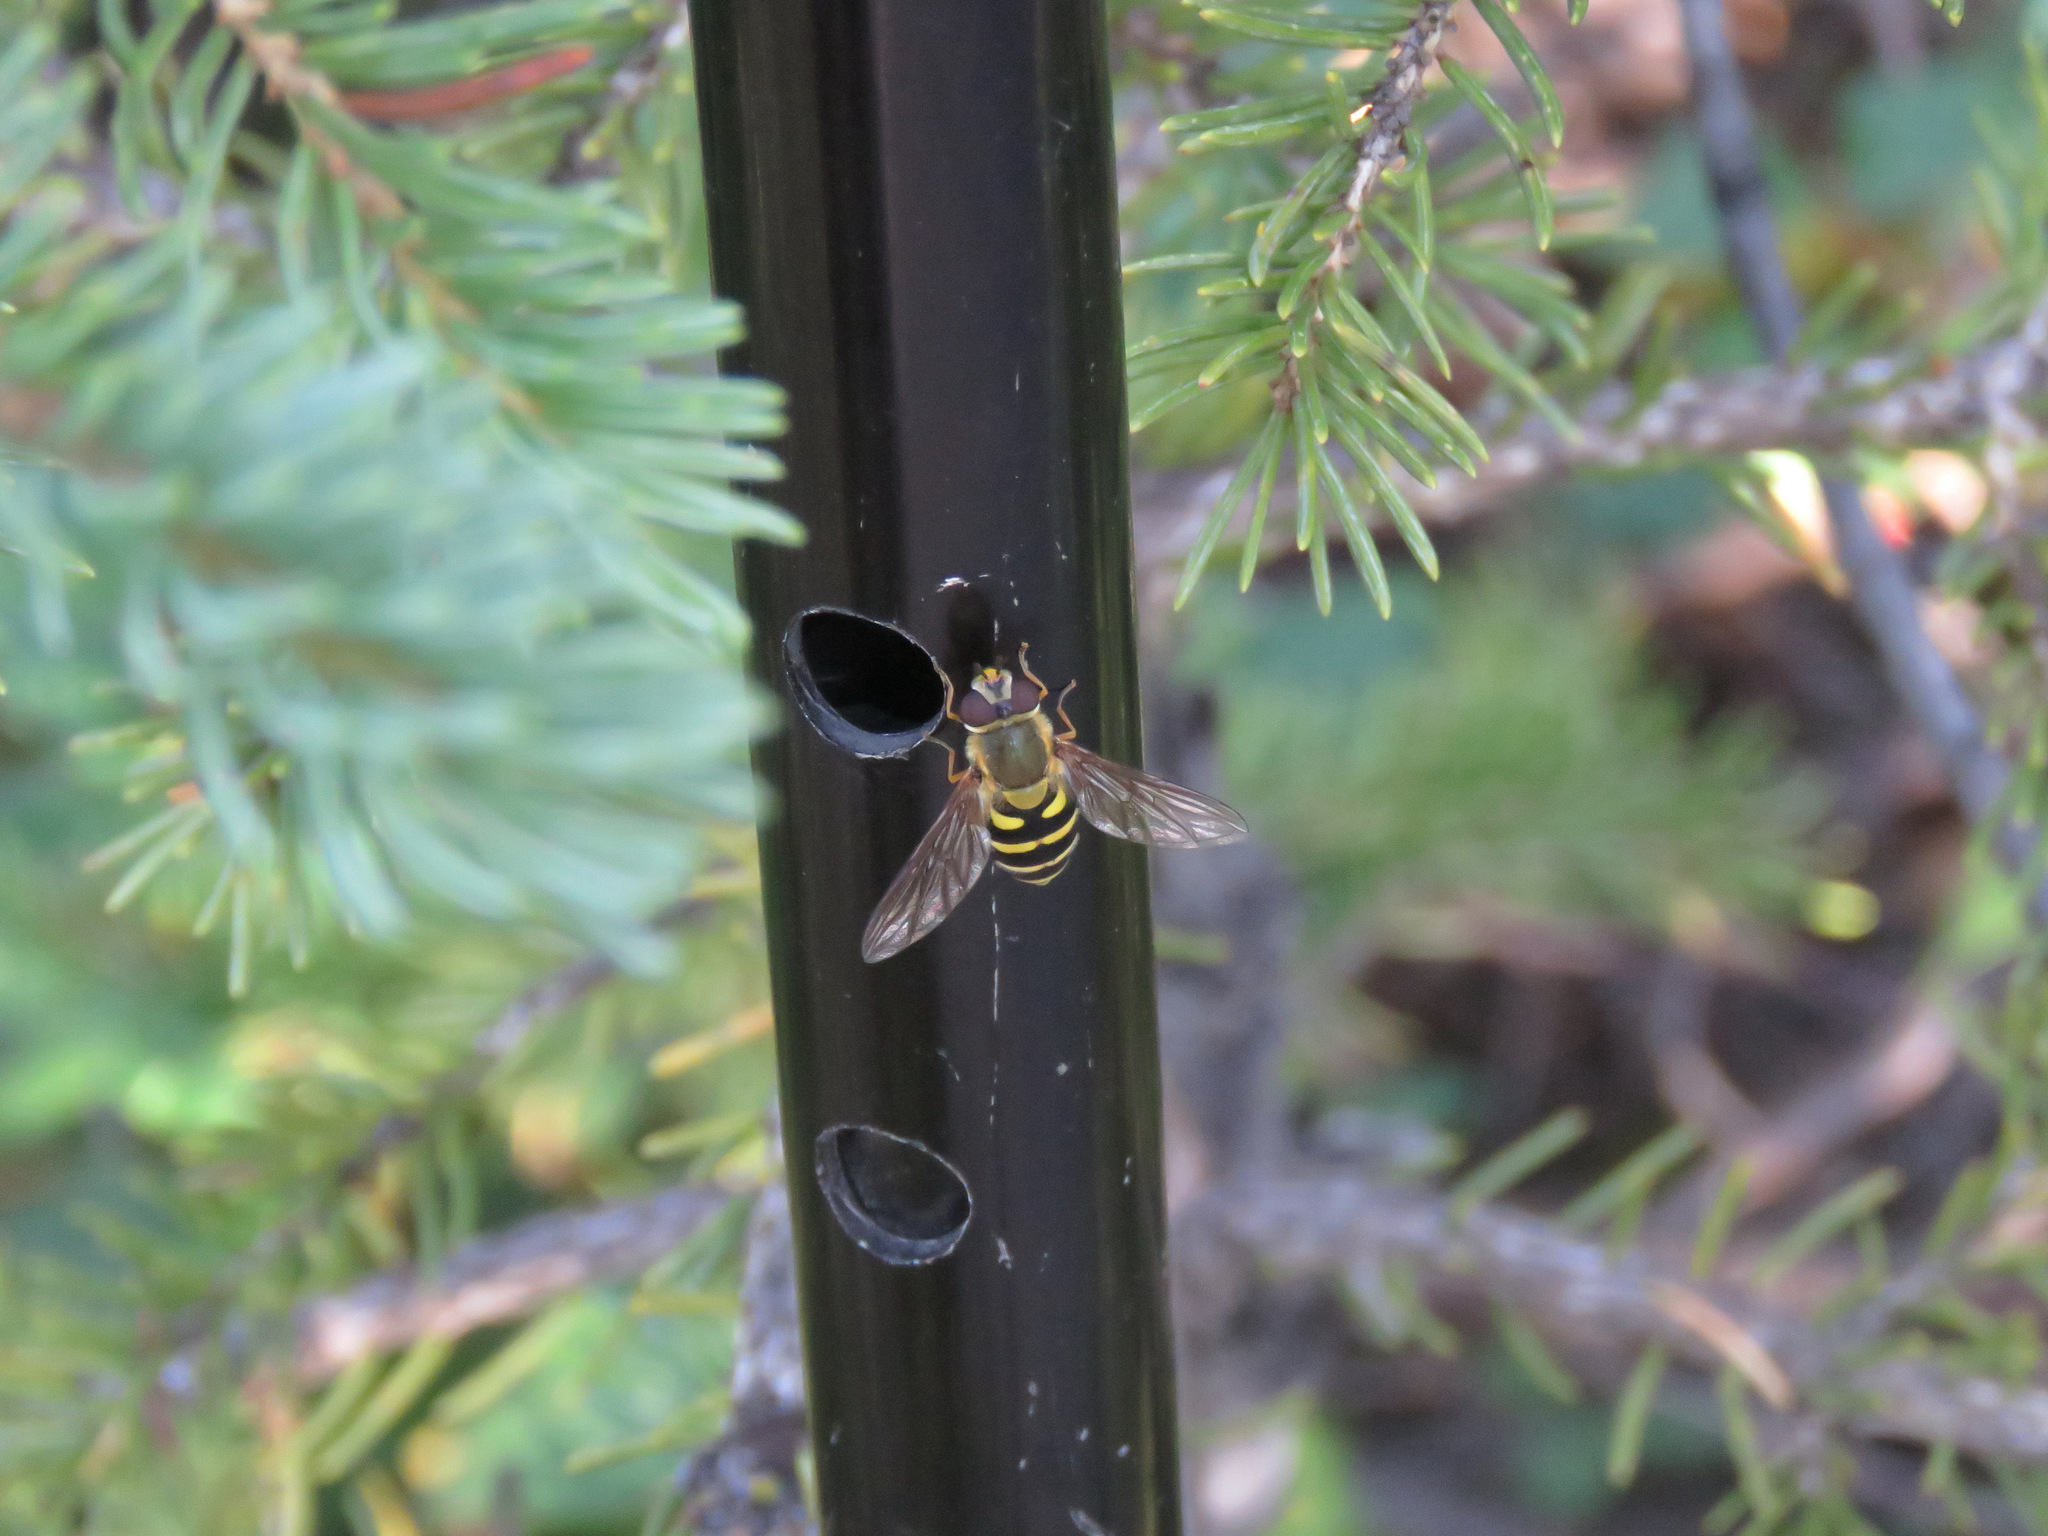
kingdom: Animalia
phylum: Arthropoda
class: Insecta
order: Diptera
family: Syrphidae
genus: Syrphus
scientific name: Syrphus
